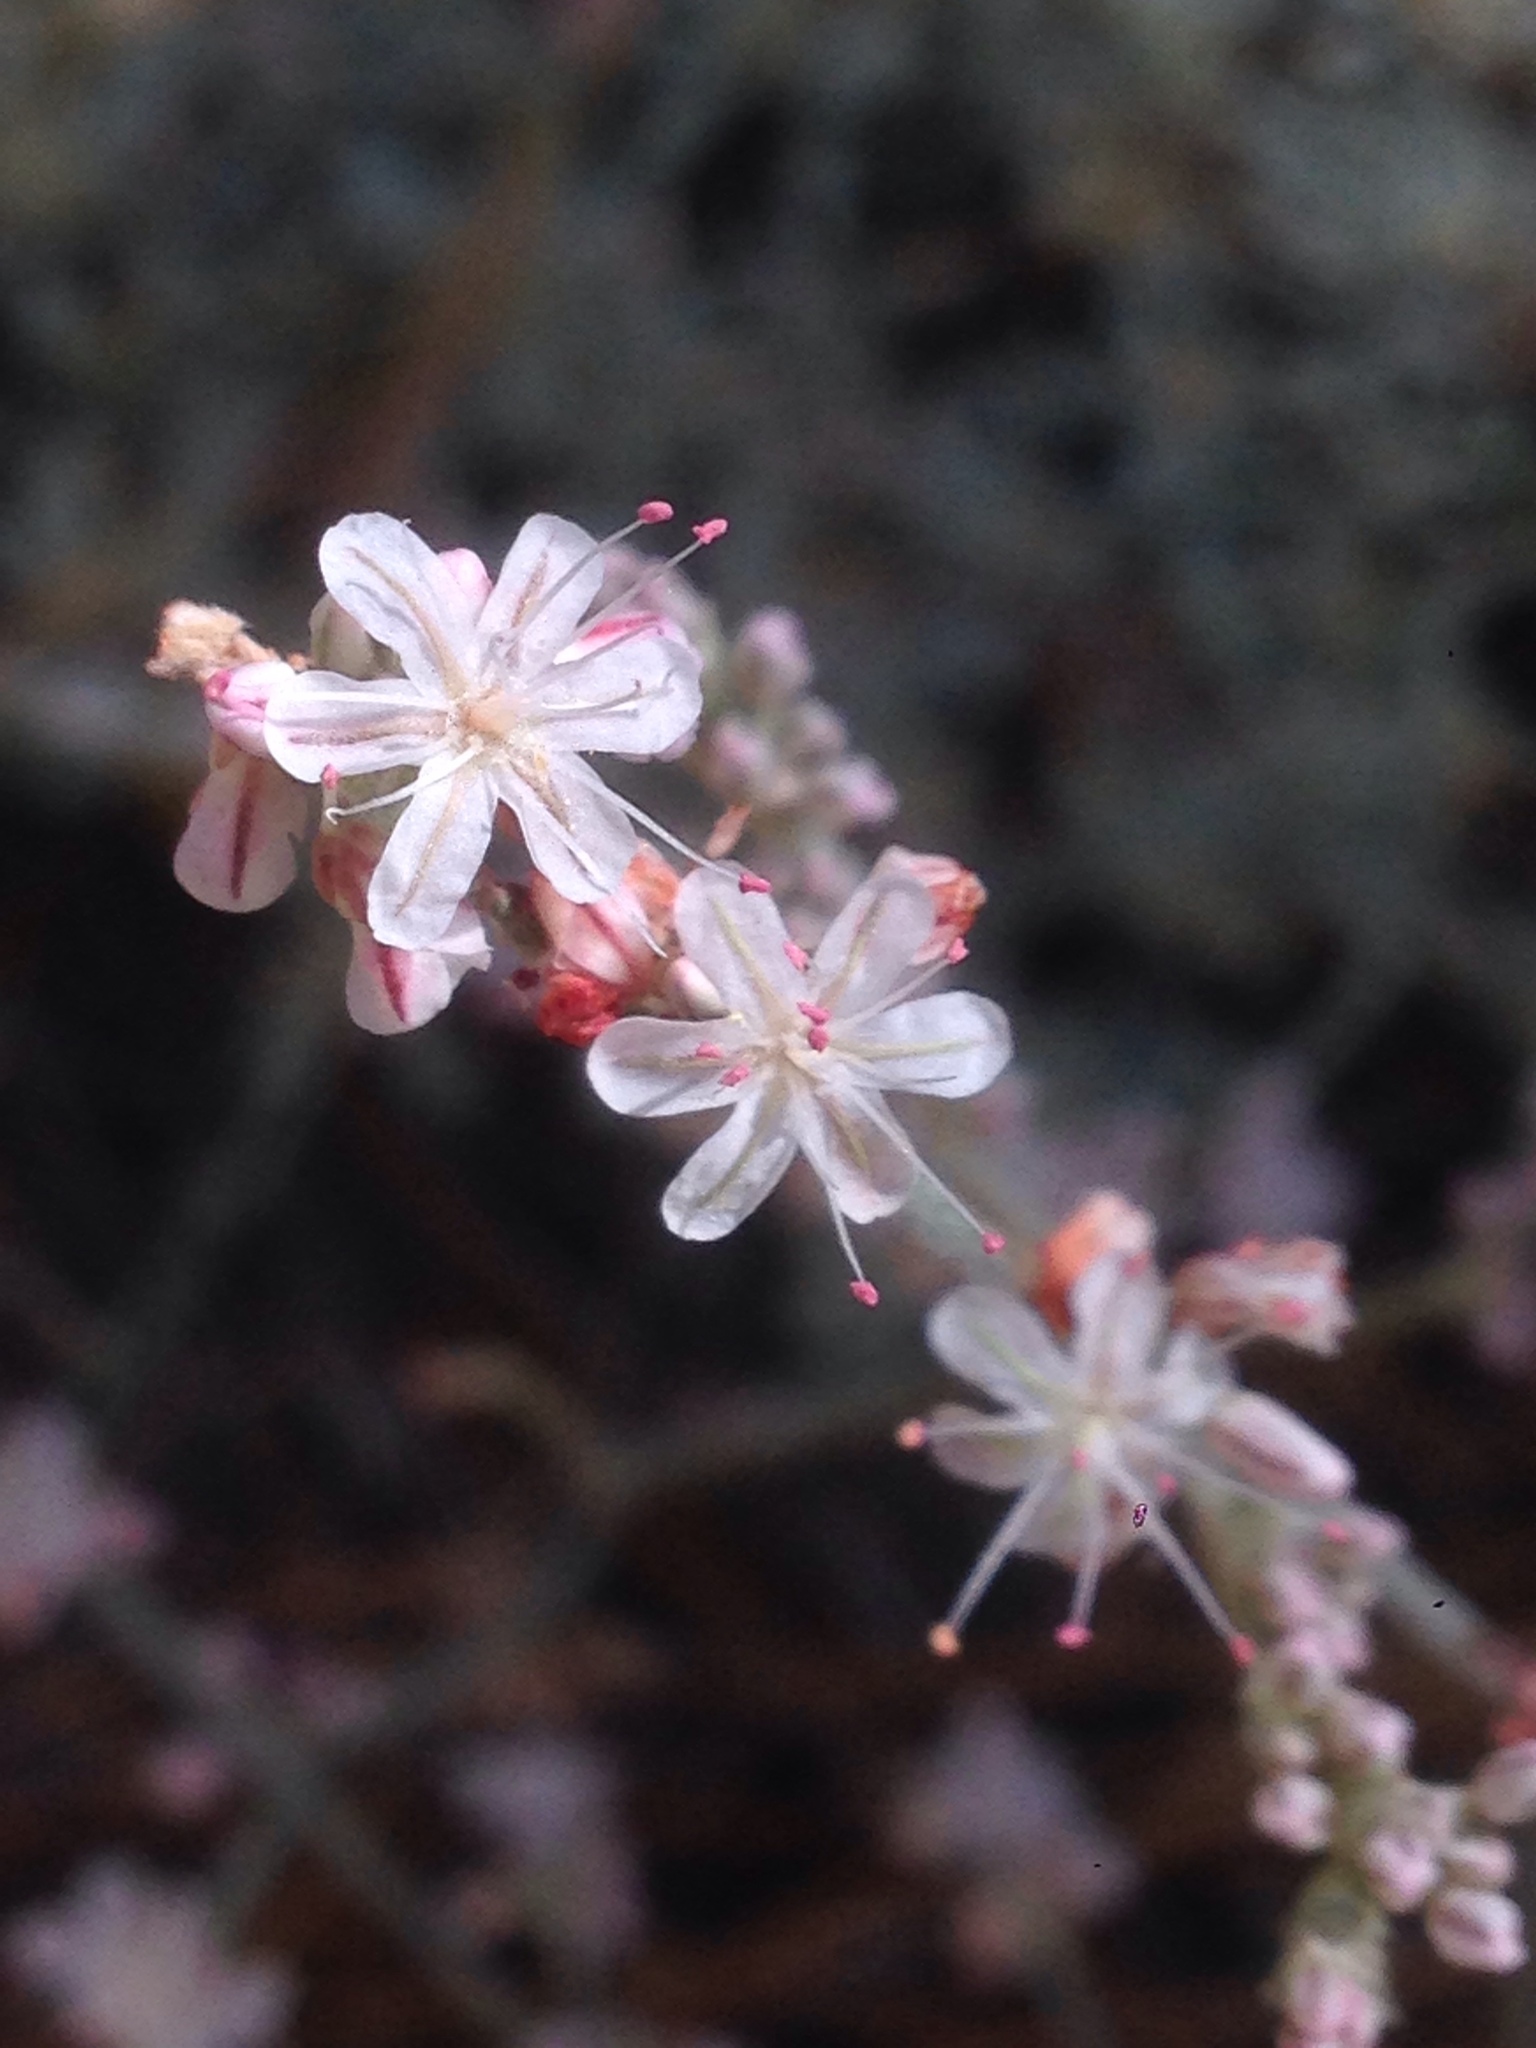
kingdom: Plantae
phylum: Tracheophyta
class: Magnoliopsida
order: Caryophyllales
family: Polygonaceae
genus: Eriogonum
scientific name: Eriogonum wrightii
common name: Bastard-sage
